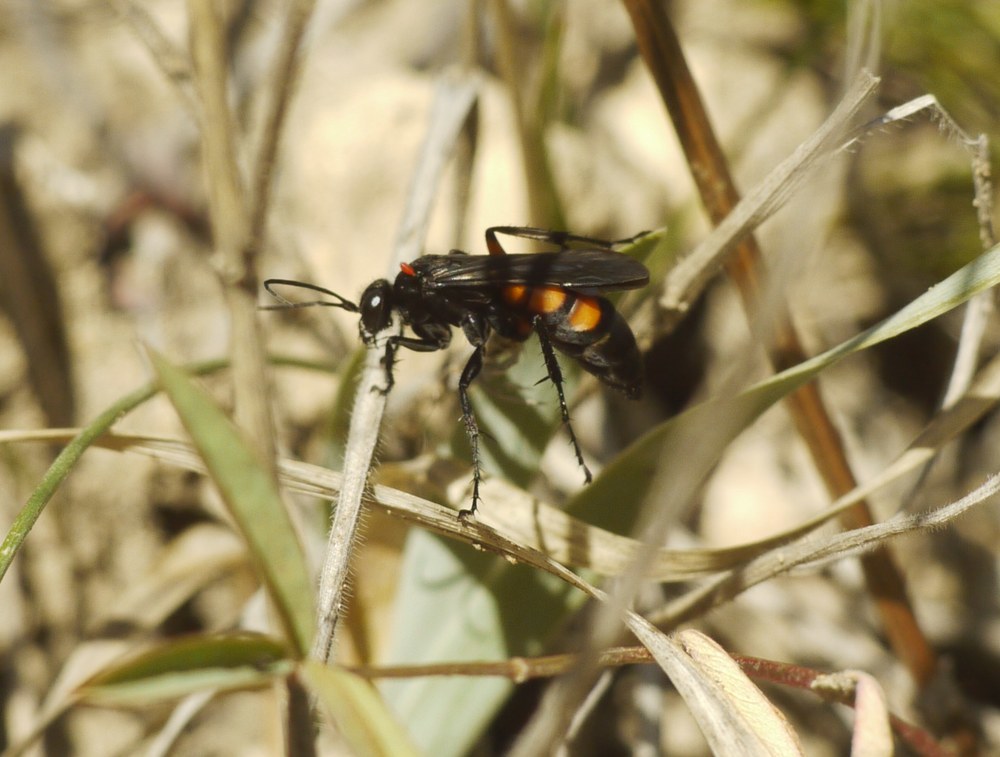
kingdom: Animalia
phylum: Arthropoda
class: Insecta
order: Hymenoptera
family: Pompilidae
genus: Anoplius
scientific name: Anoplius viaticus
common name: Black banded spider wasp
